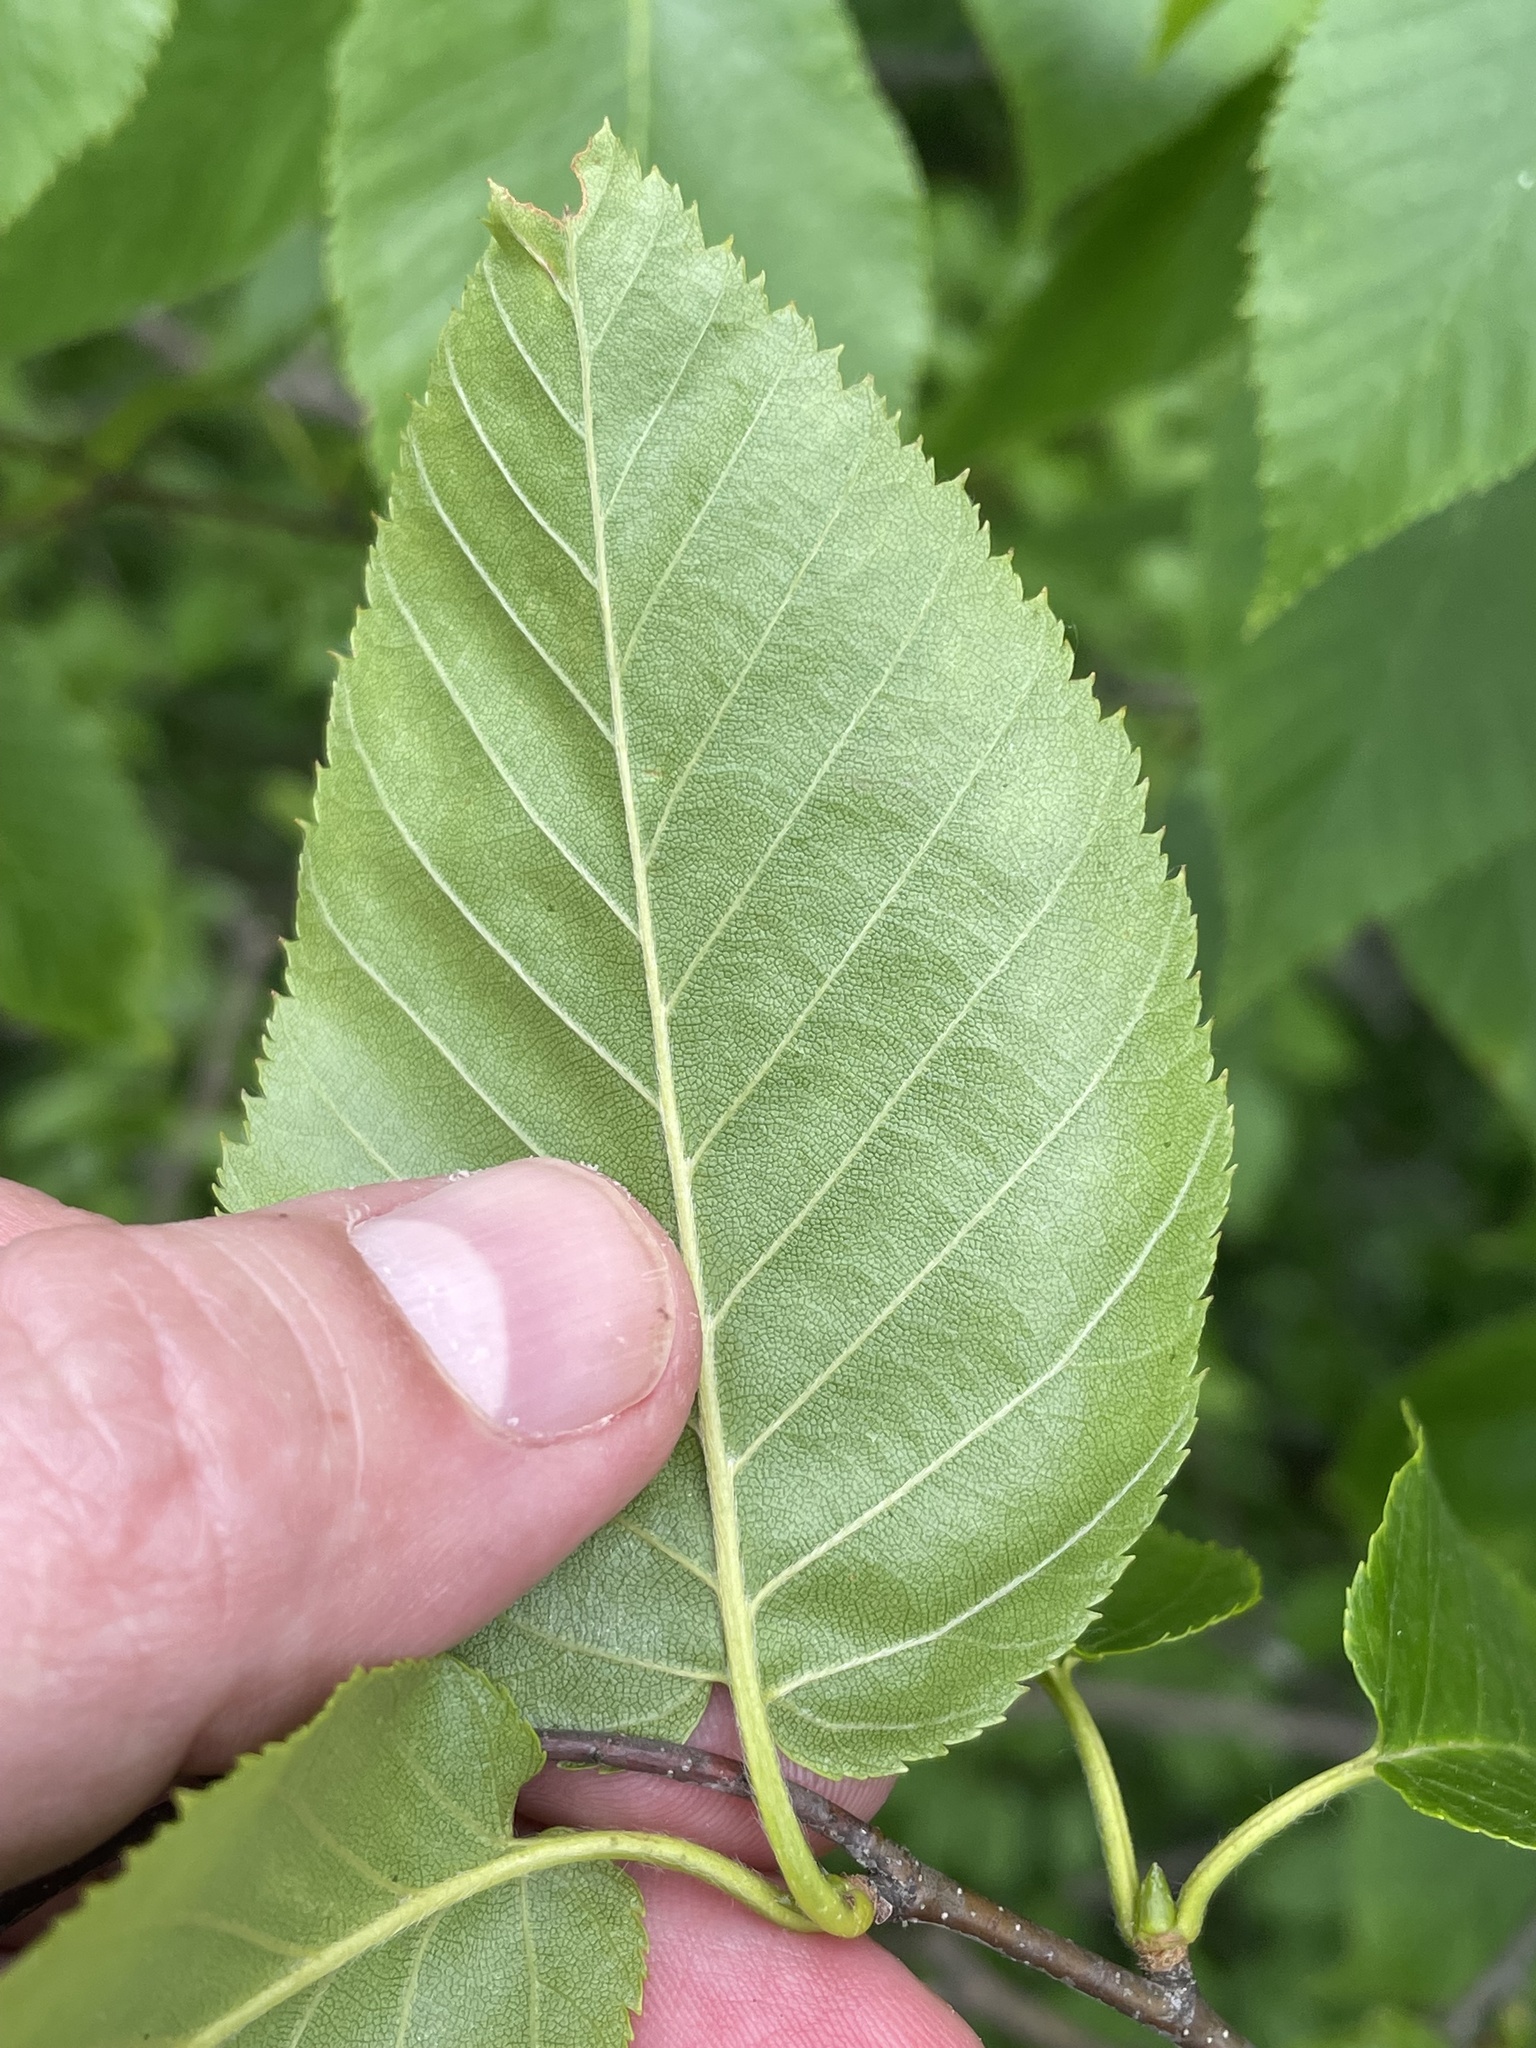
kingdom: Plantae
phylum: Tracheophyta
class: Magnoliopsida
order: Fagales
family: Betulaceae
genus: Betula
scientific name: Betula lenta
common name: Black birch
